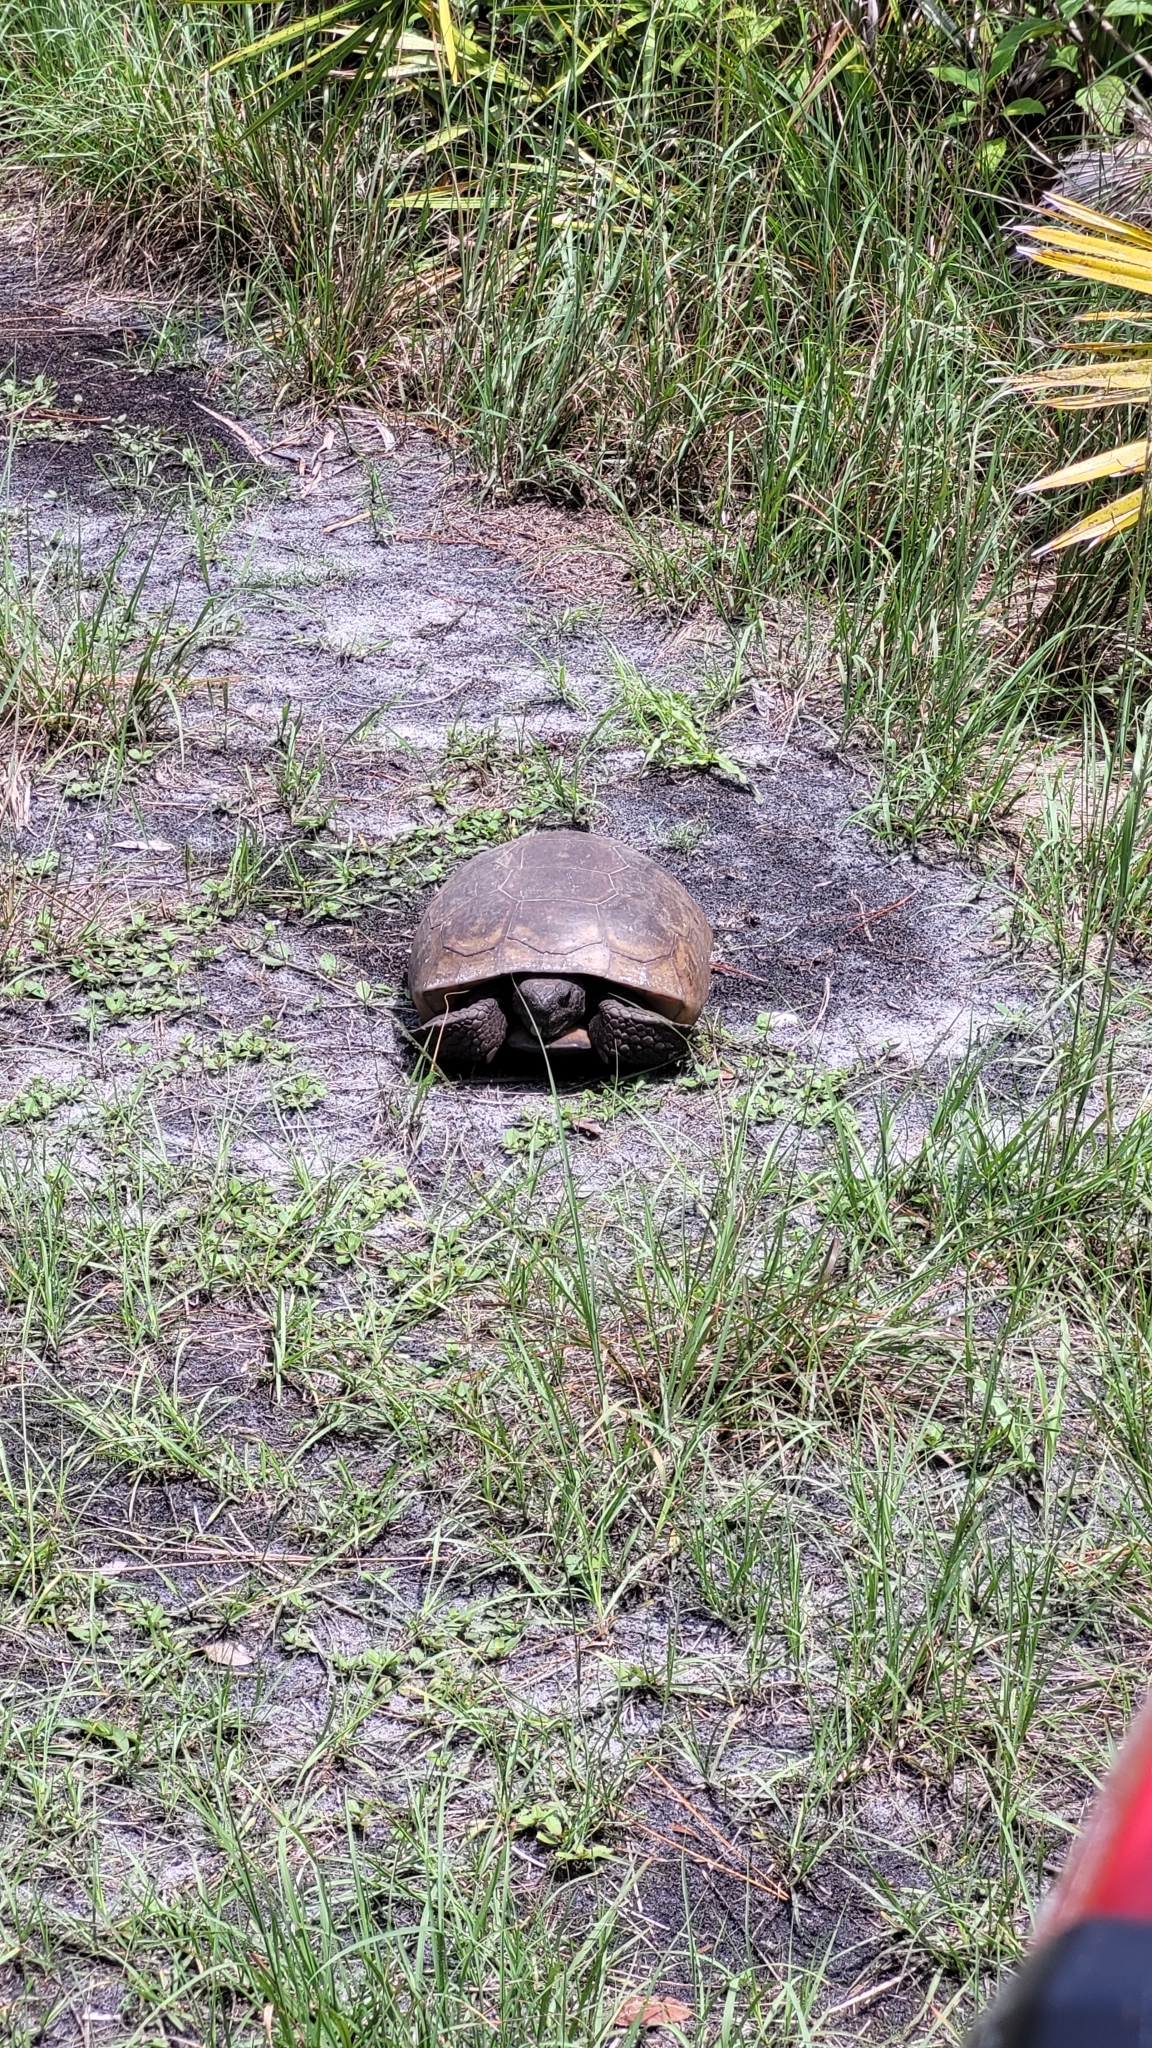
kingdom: Animalia
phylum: Chordata
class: Testudines
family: Testudinidae
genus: Gopherus
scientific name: Gopherus polyphemus
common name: Florida gopher tortoise
